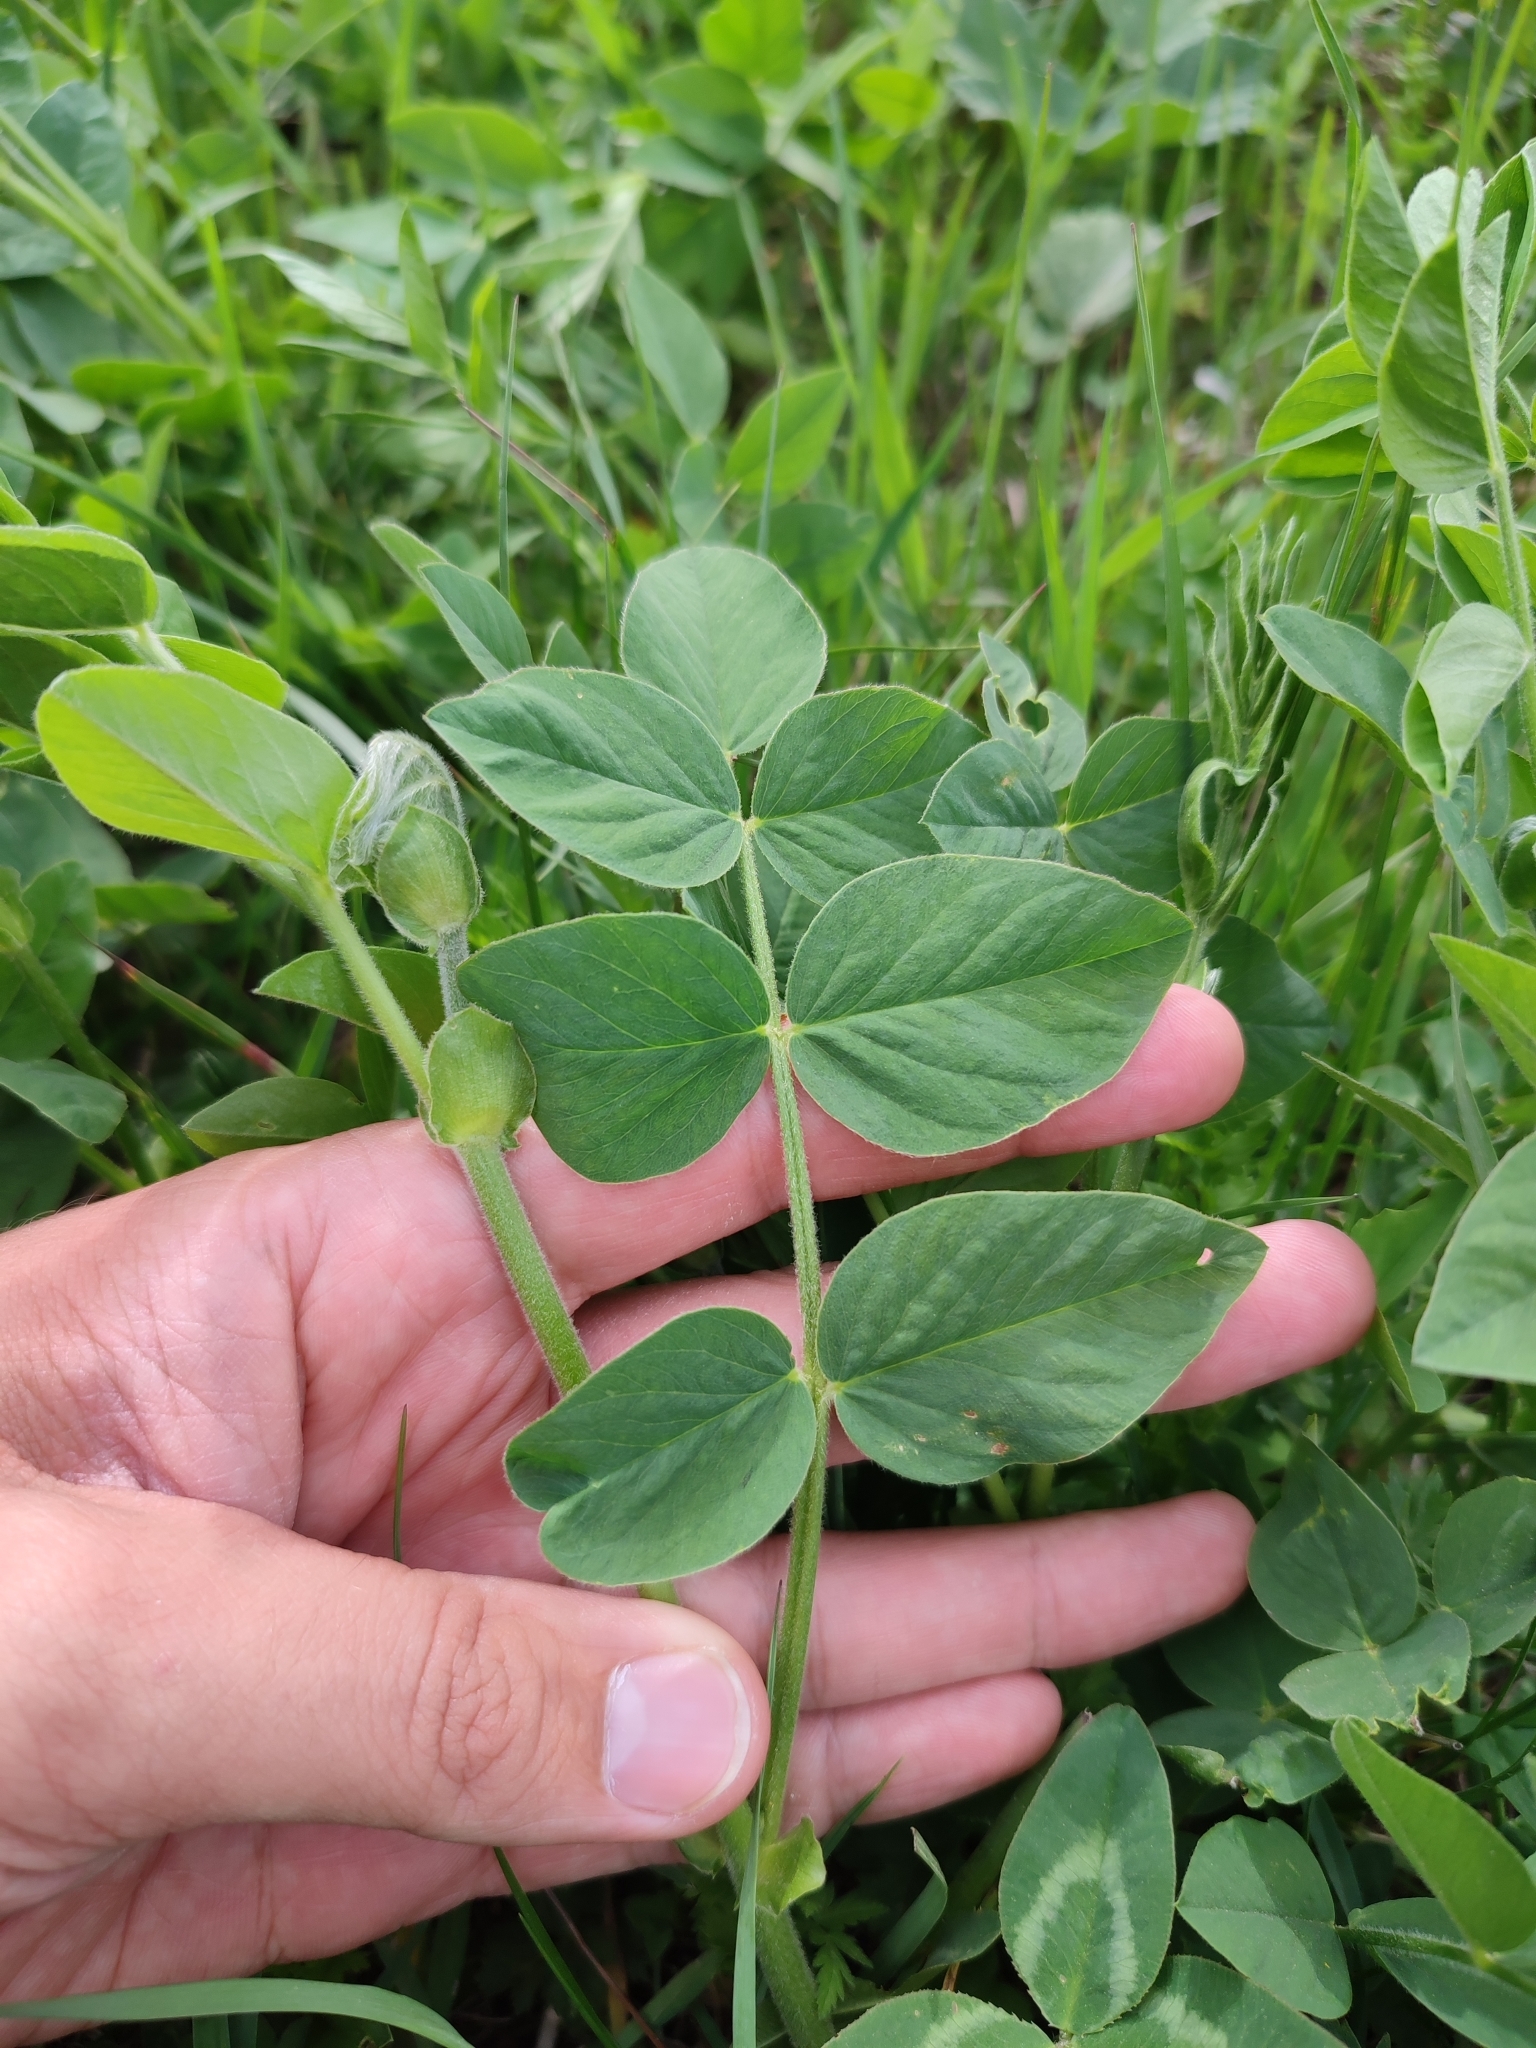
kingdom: Plantae
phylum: Tracheophyta
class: Magnoliopsida
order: Fabales
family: Fabaceae
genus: Galega
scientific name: Galega orientalis
